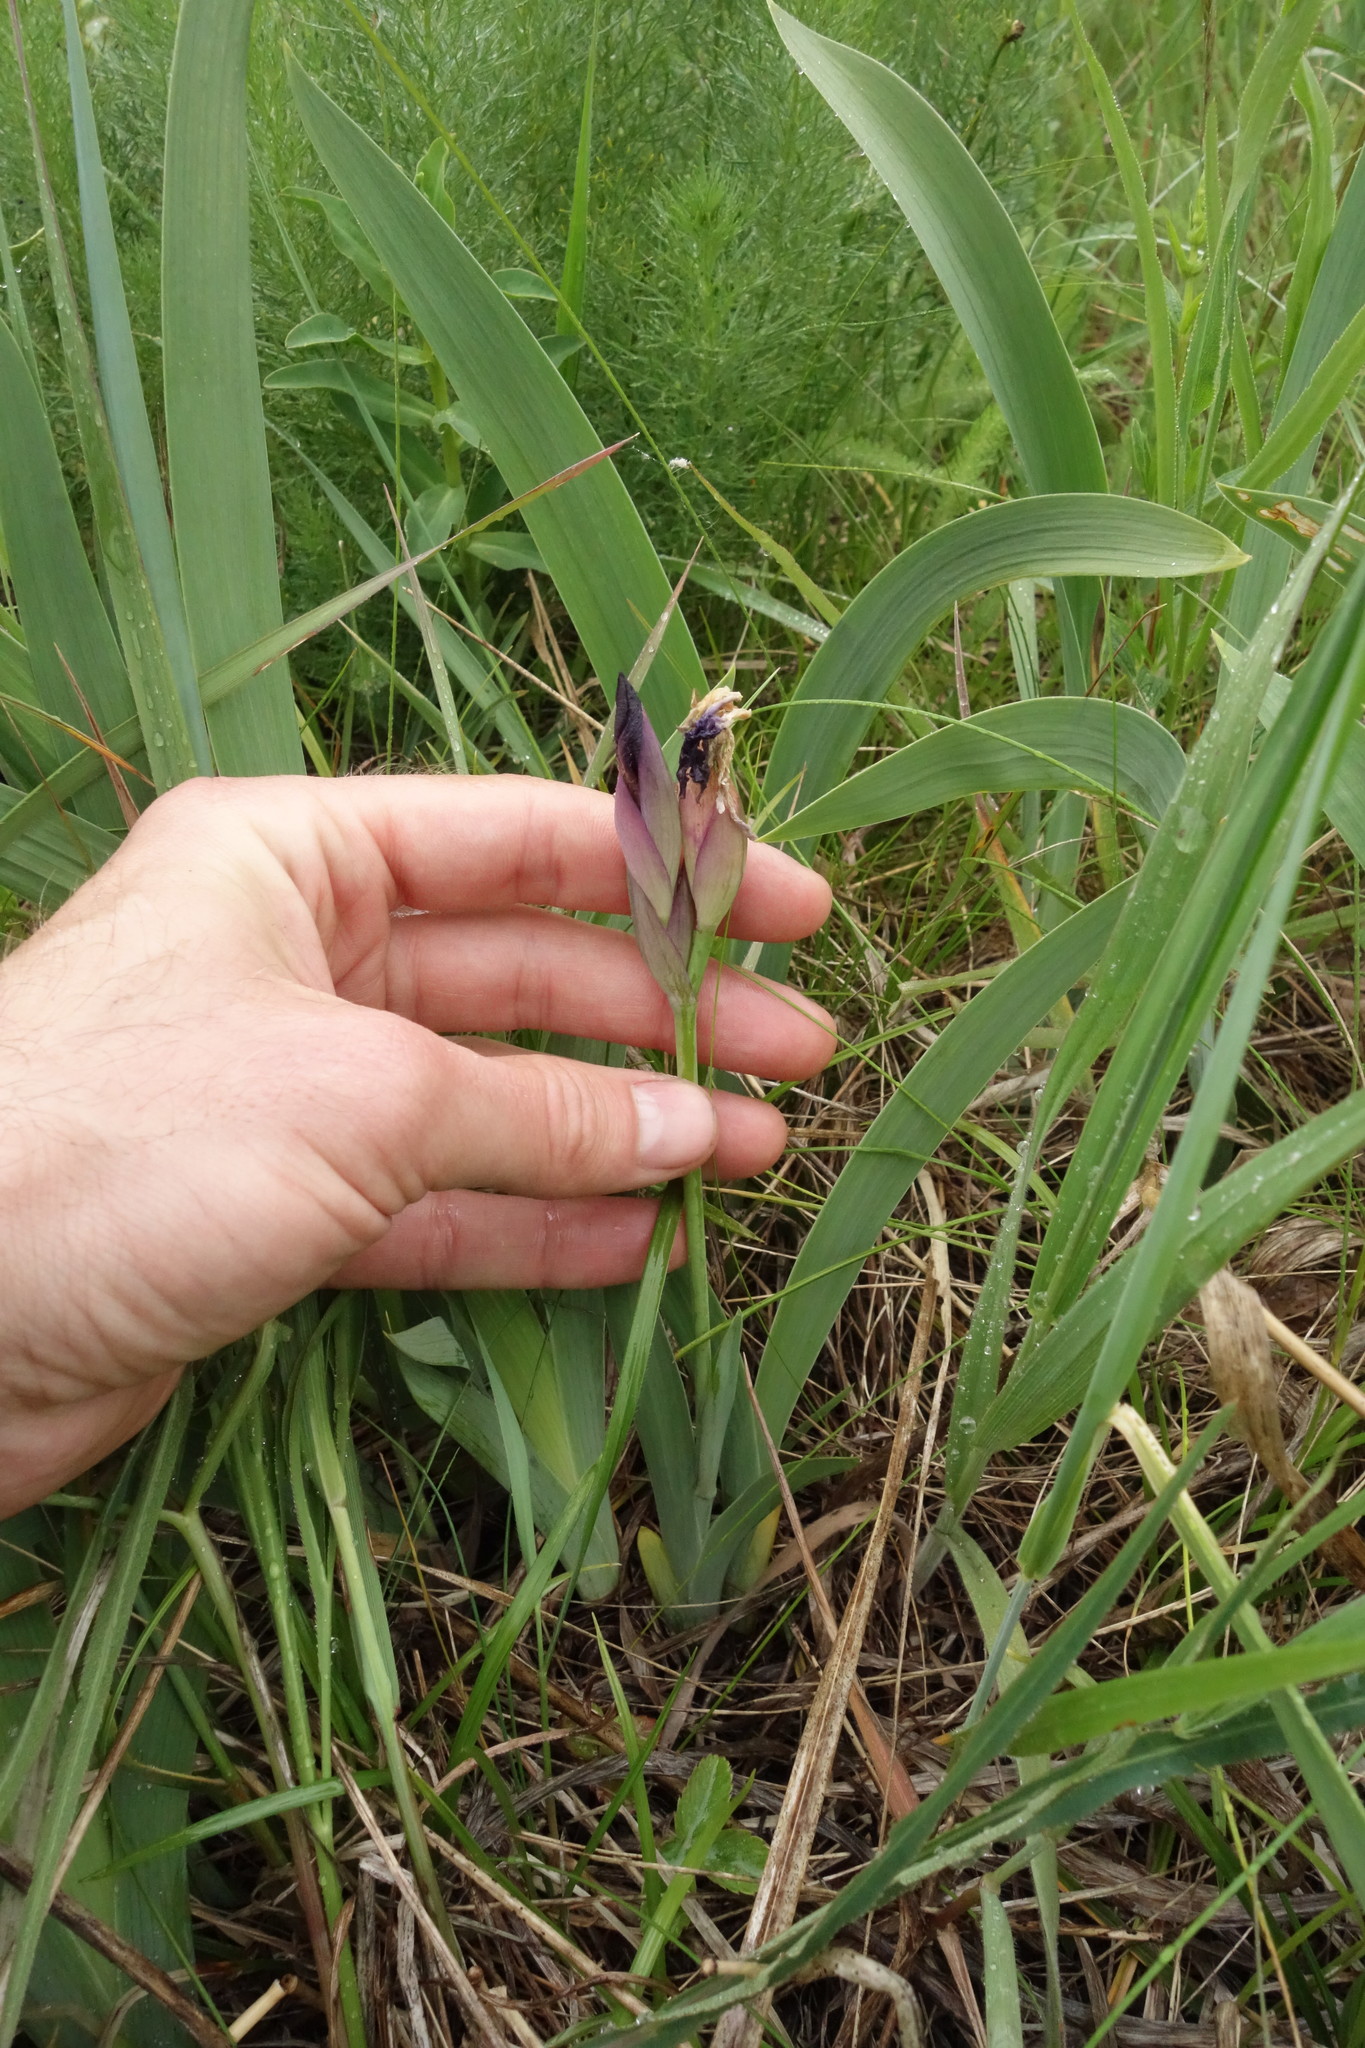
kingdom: Plantae
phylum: Tracheophyta
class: Liliopsida
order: Asparagales
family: Iridaceae
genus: Iris
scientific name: Iris aphylla
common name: Stool iris
